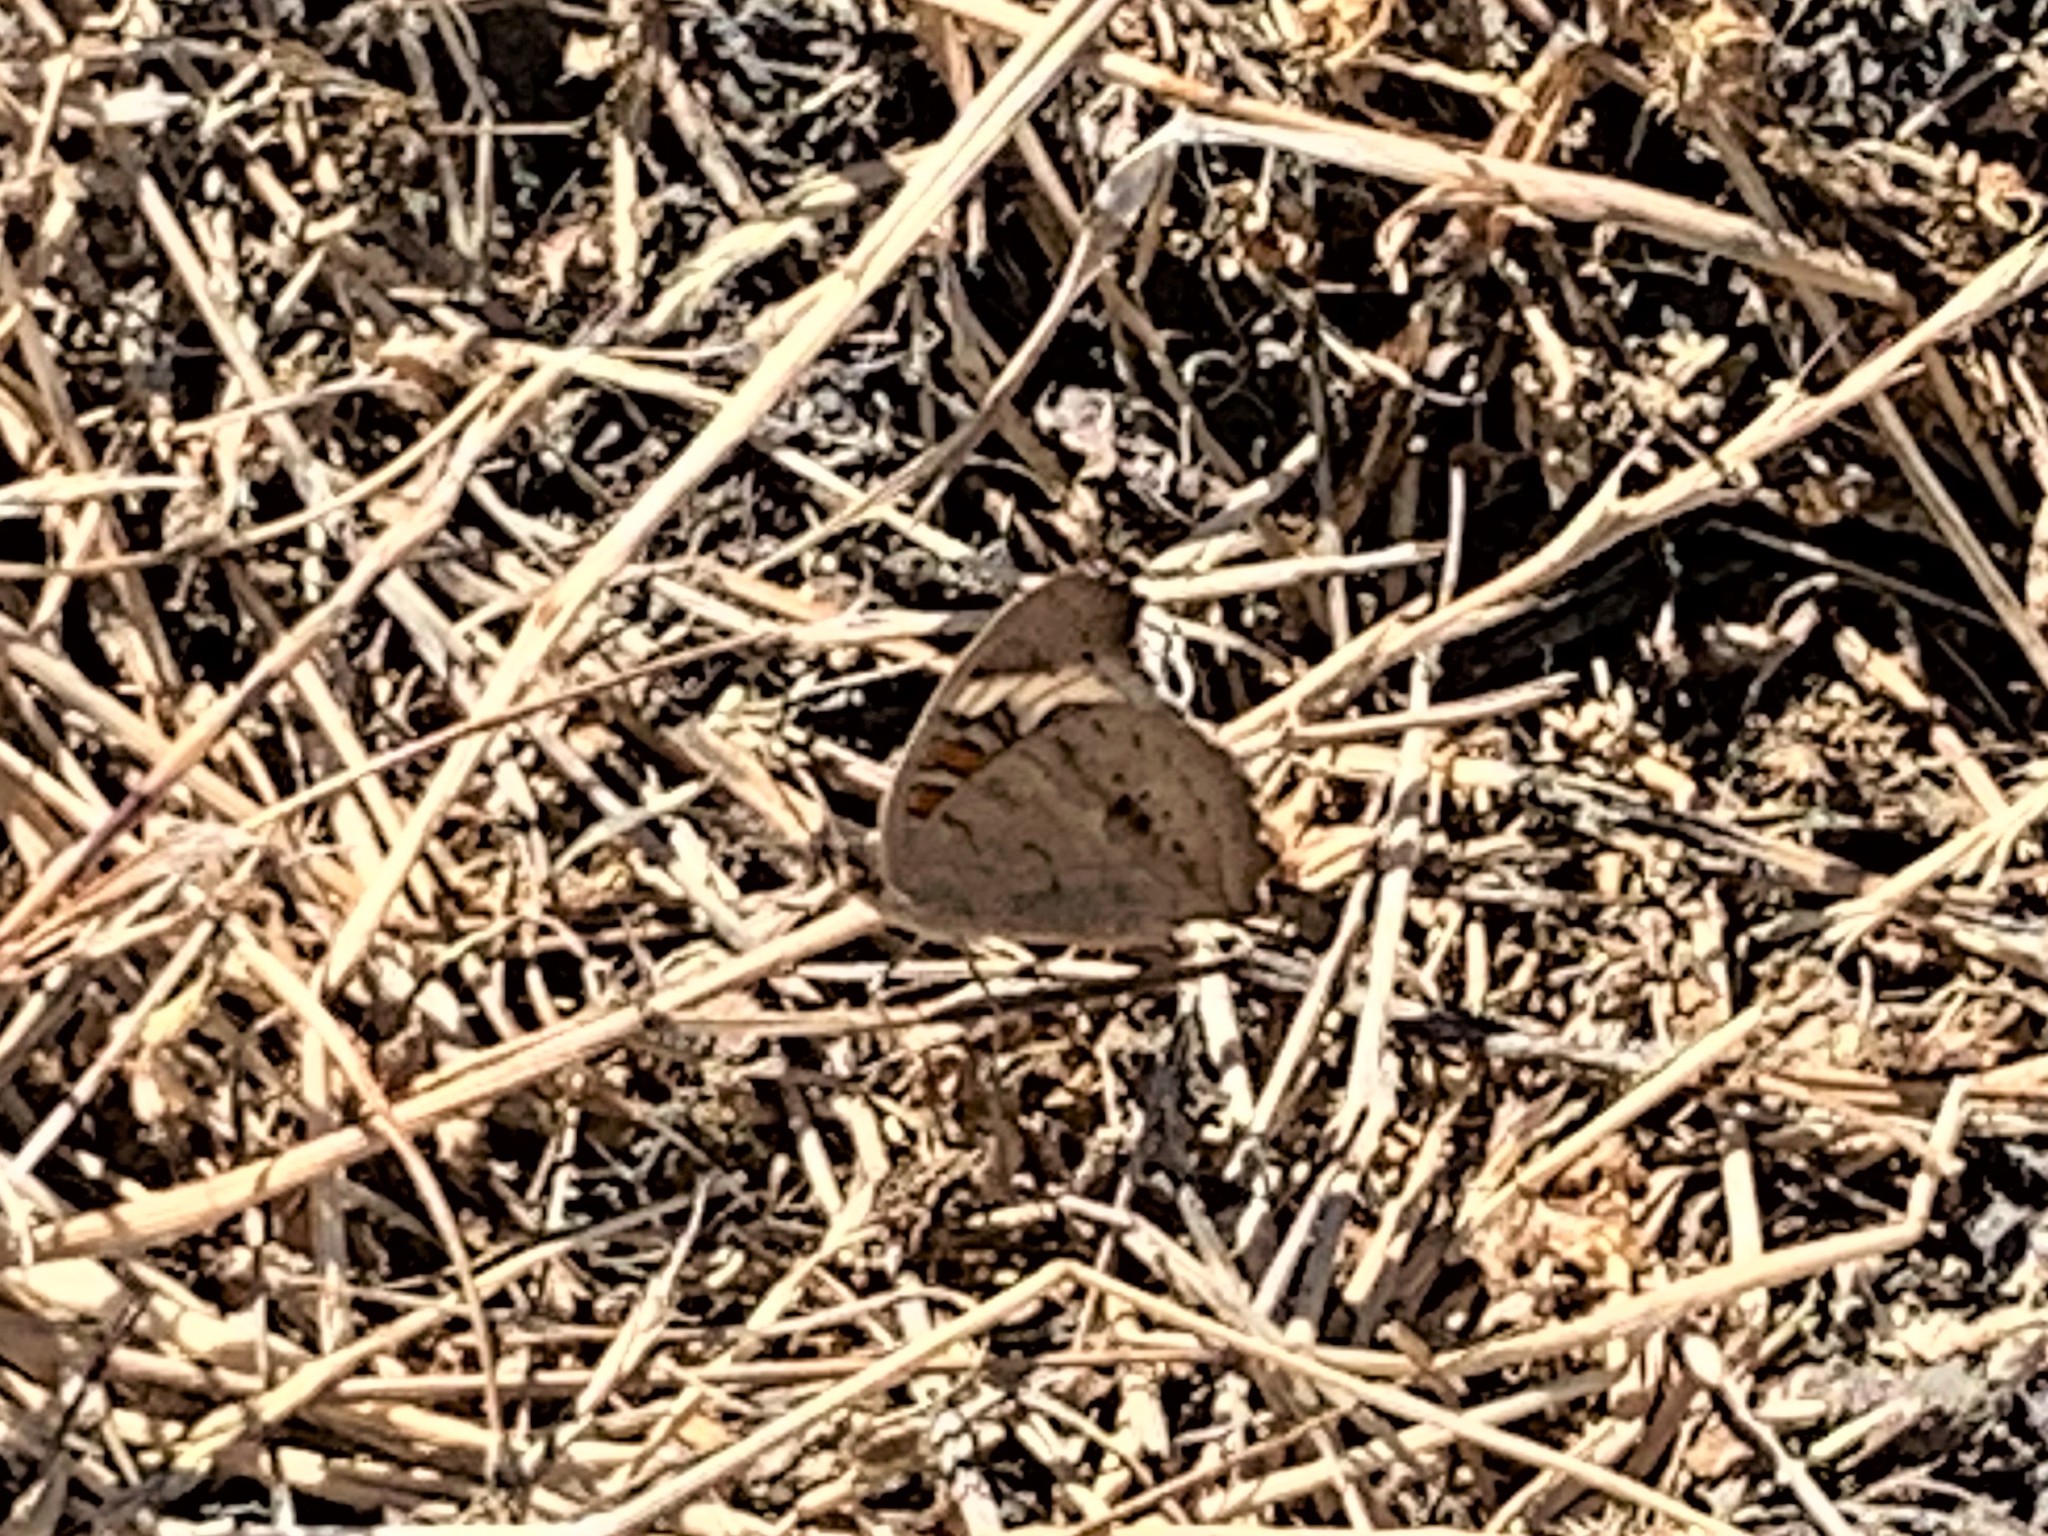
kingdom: Animalia
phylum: Arthropoda
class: Insecta
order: Lepidoptera
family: Nymphalidae
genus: Junonia
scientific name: Junonia grisea
